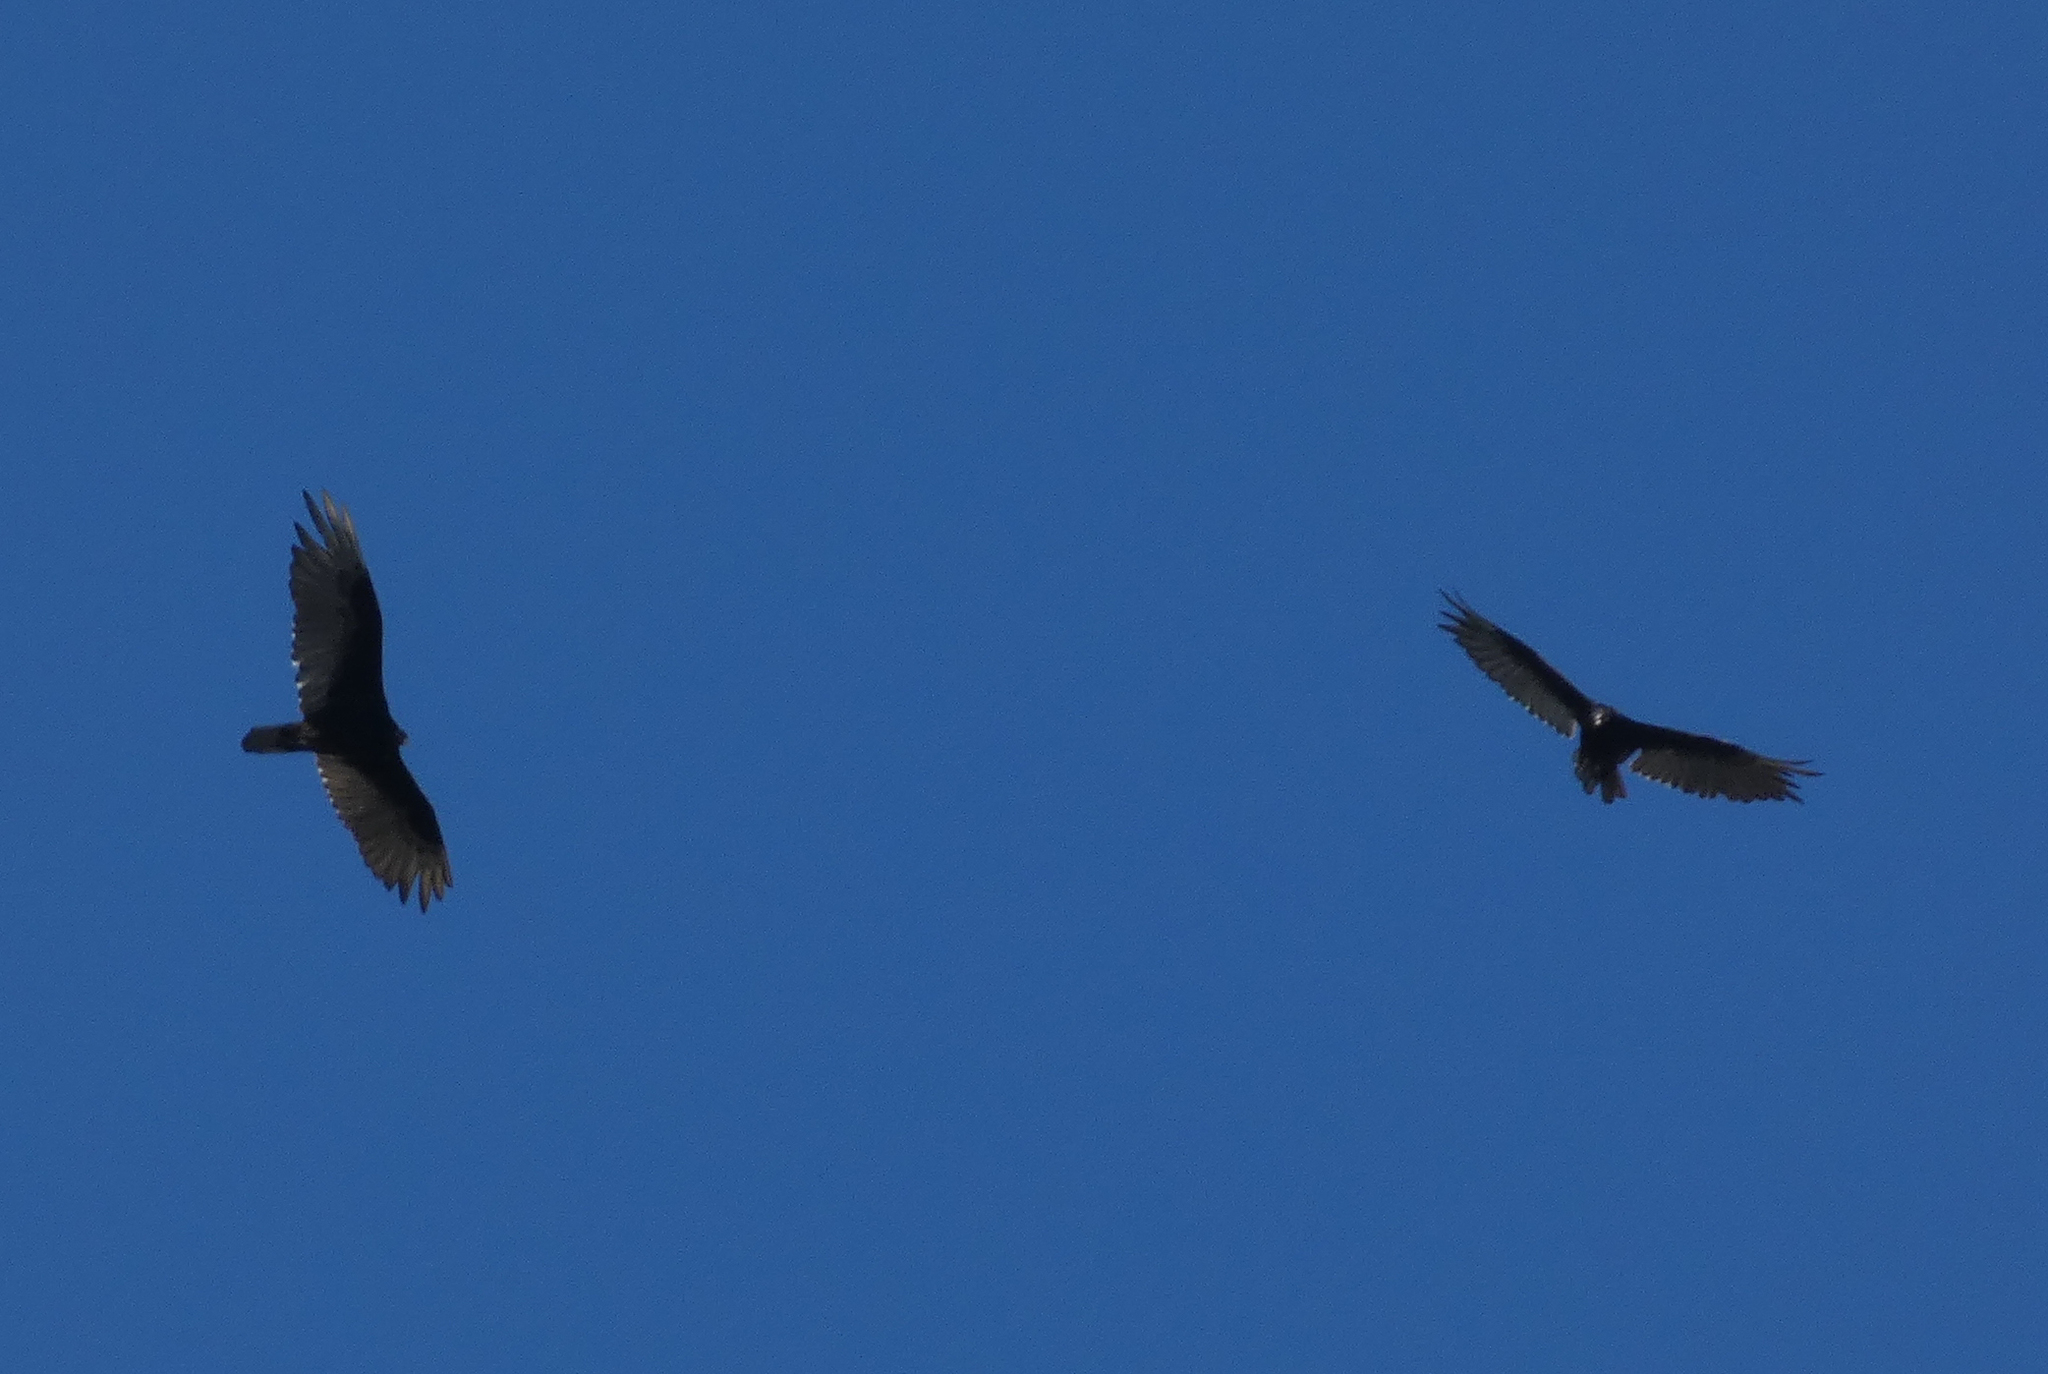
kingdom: Animalia
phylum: Chordata
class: Aves
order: Accipitriformes
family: Cathartidae
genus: Cathartes
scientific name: Cathartes aura
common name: Turkey vulture
